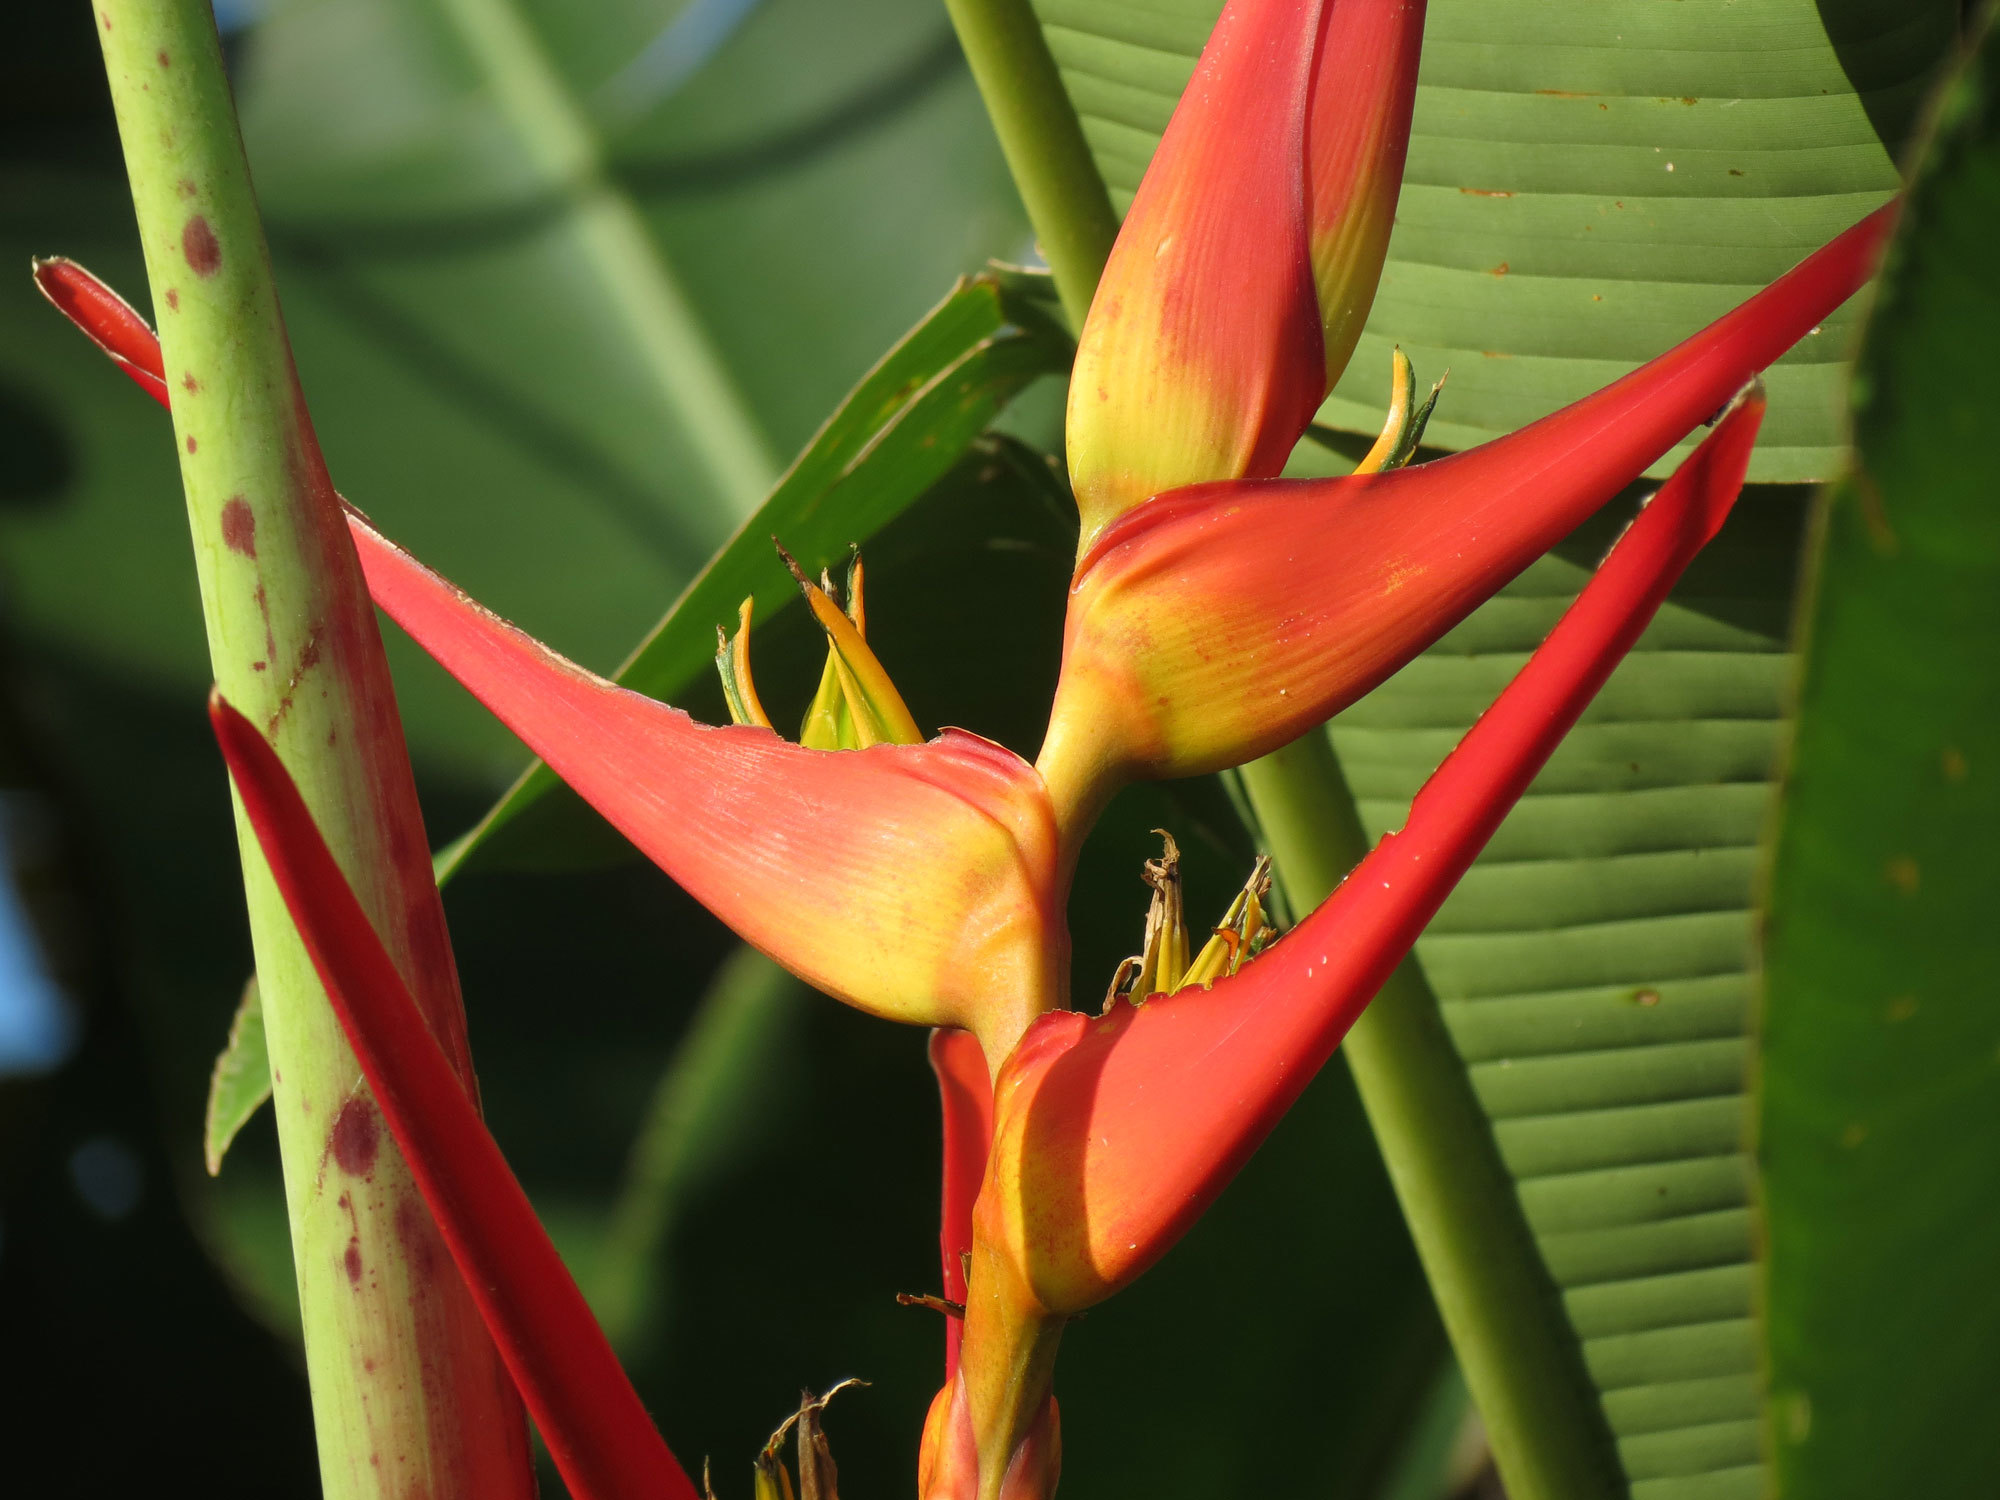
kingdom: Plantae
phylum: Tracheophyta
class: Liliopsida
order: Zingiberales
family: Heliconiaceae
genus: Heliconia
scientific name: Heliconia latispatha
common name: Expanded lobsterclaw
